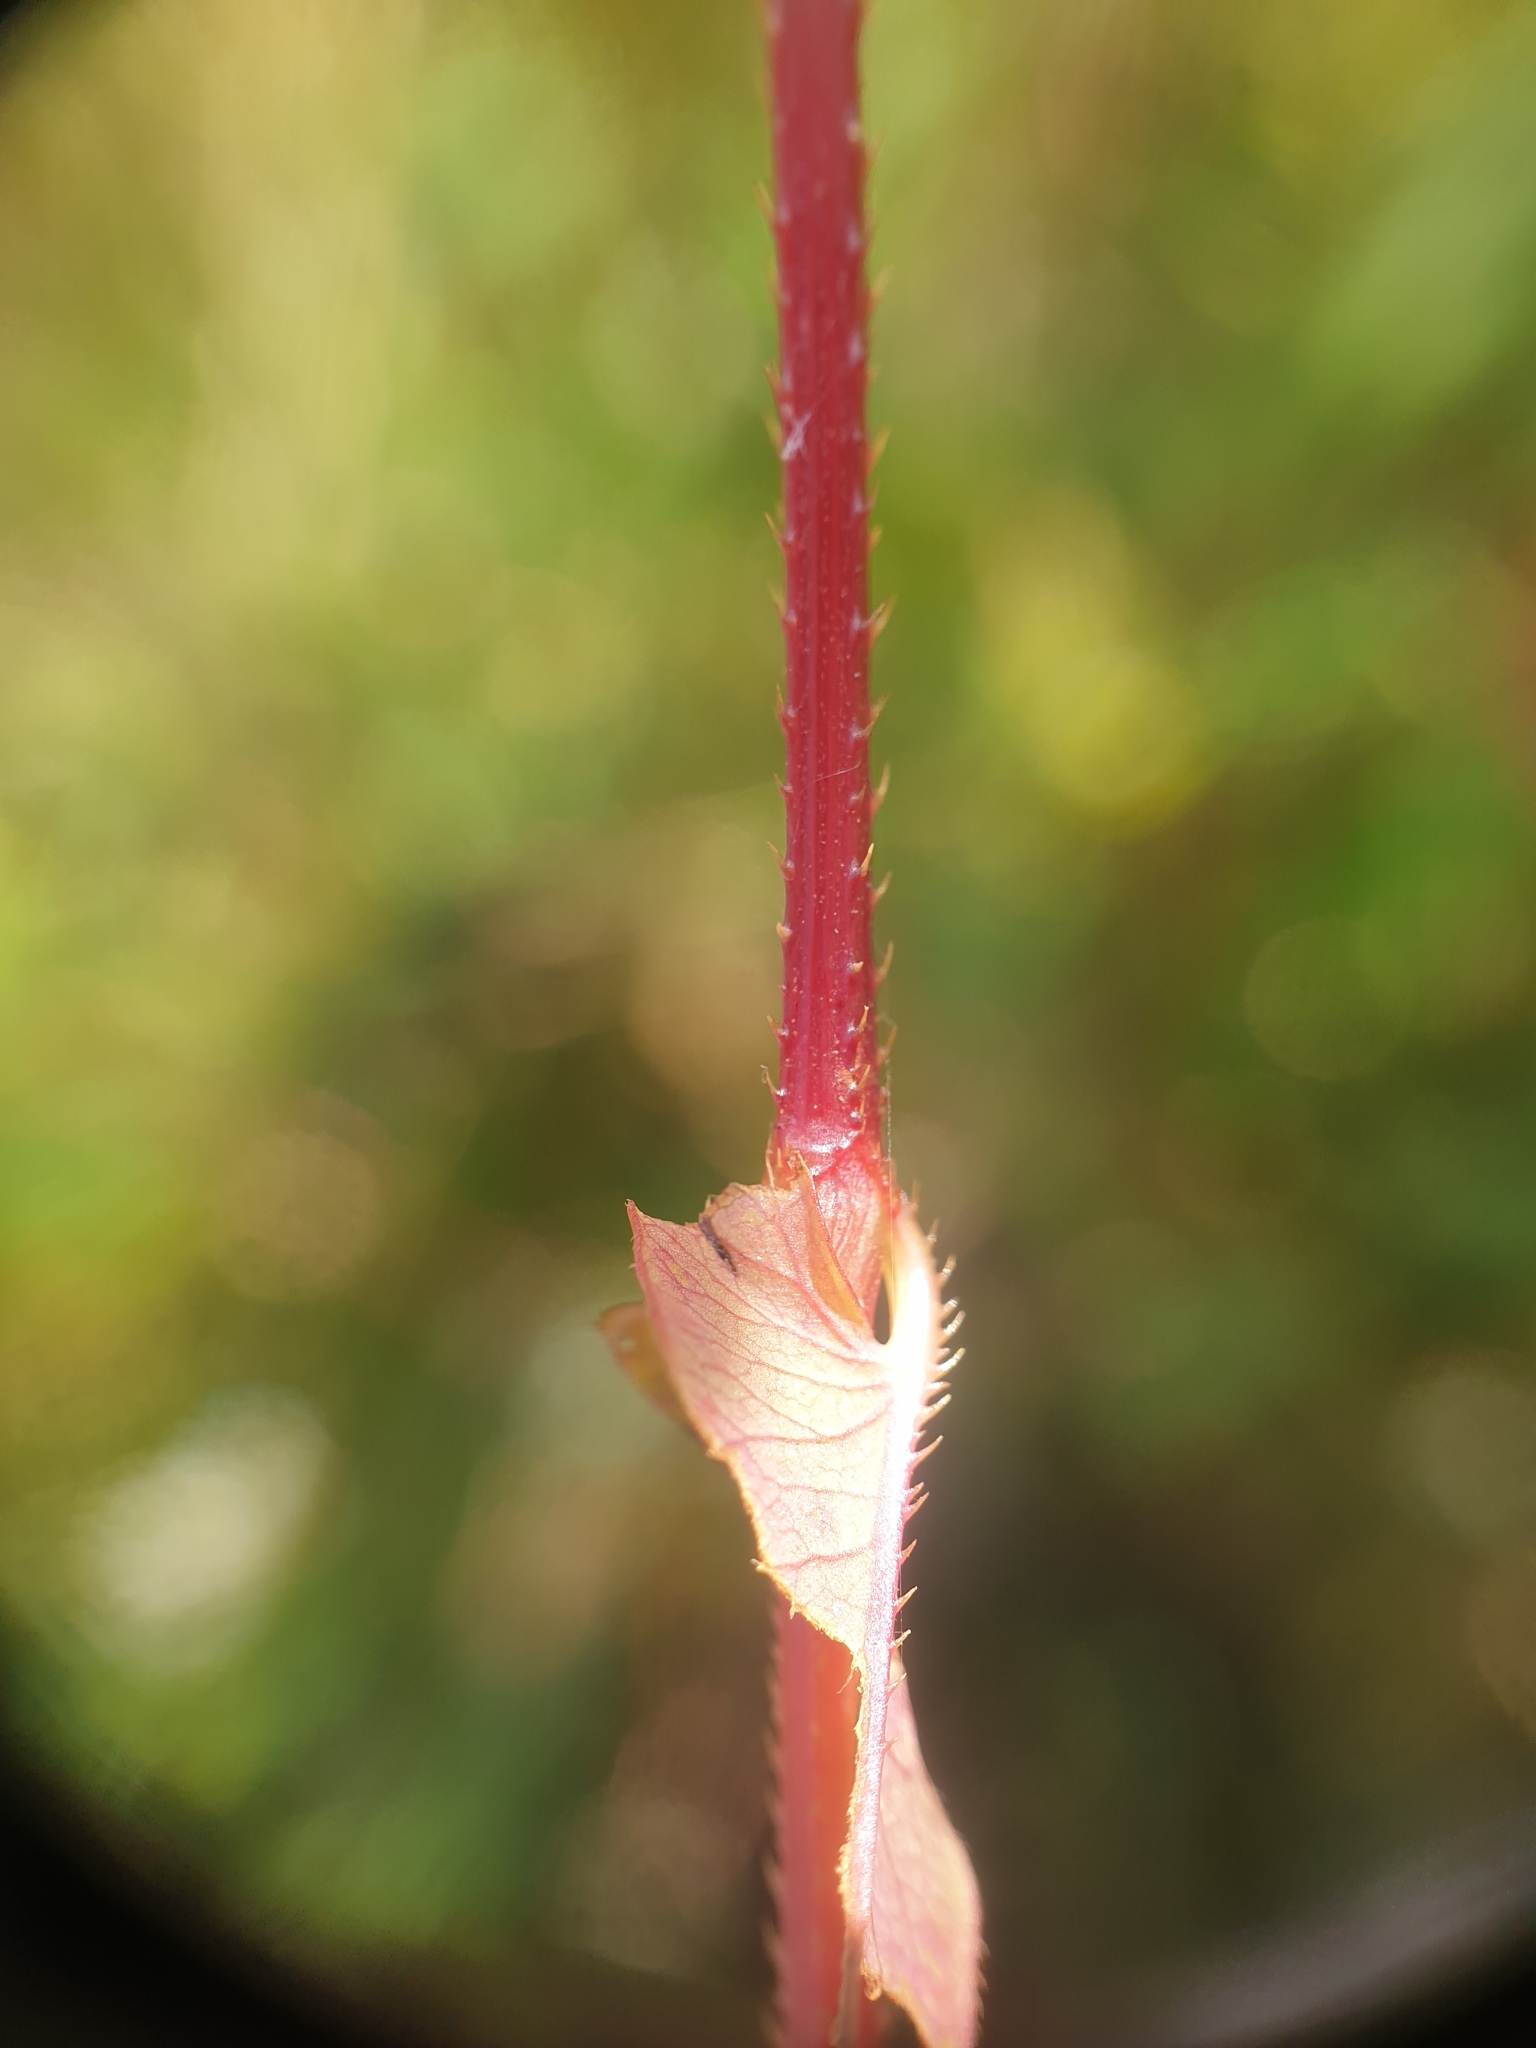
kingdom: Plantae
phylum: Tracheophyta
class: Magnoliopsida
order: Caryophyllales
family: Polygonaceae
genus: Persicaria
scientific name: Persicaria sagittata
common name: American tearthumb
